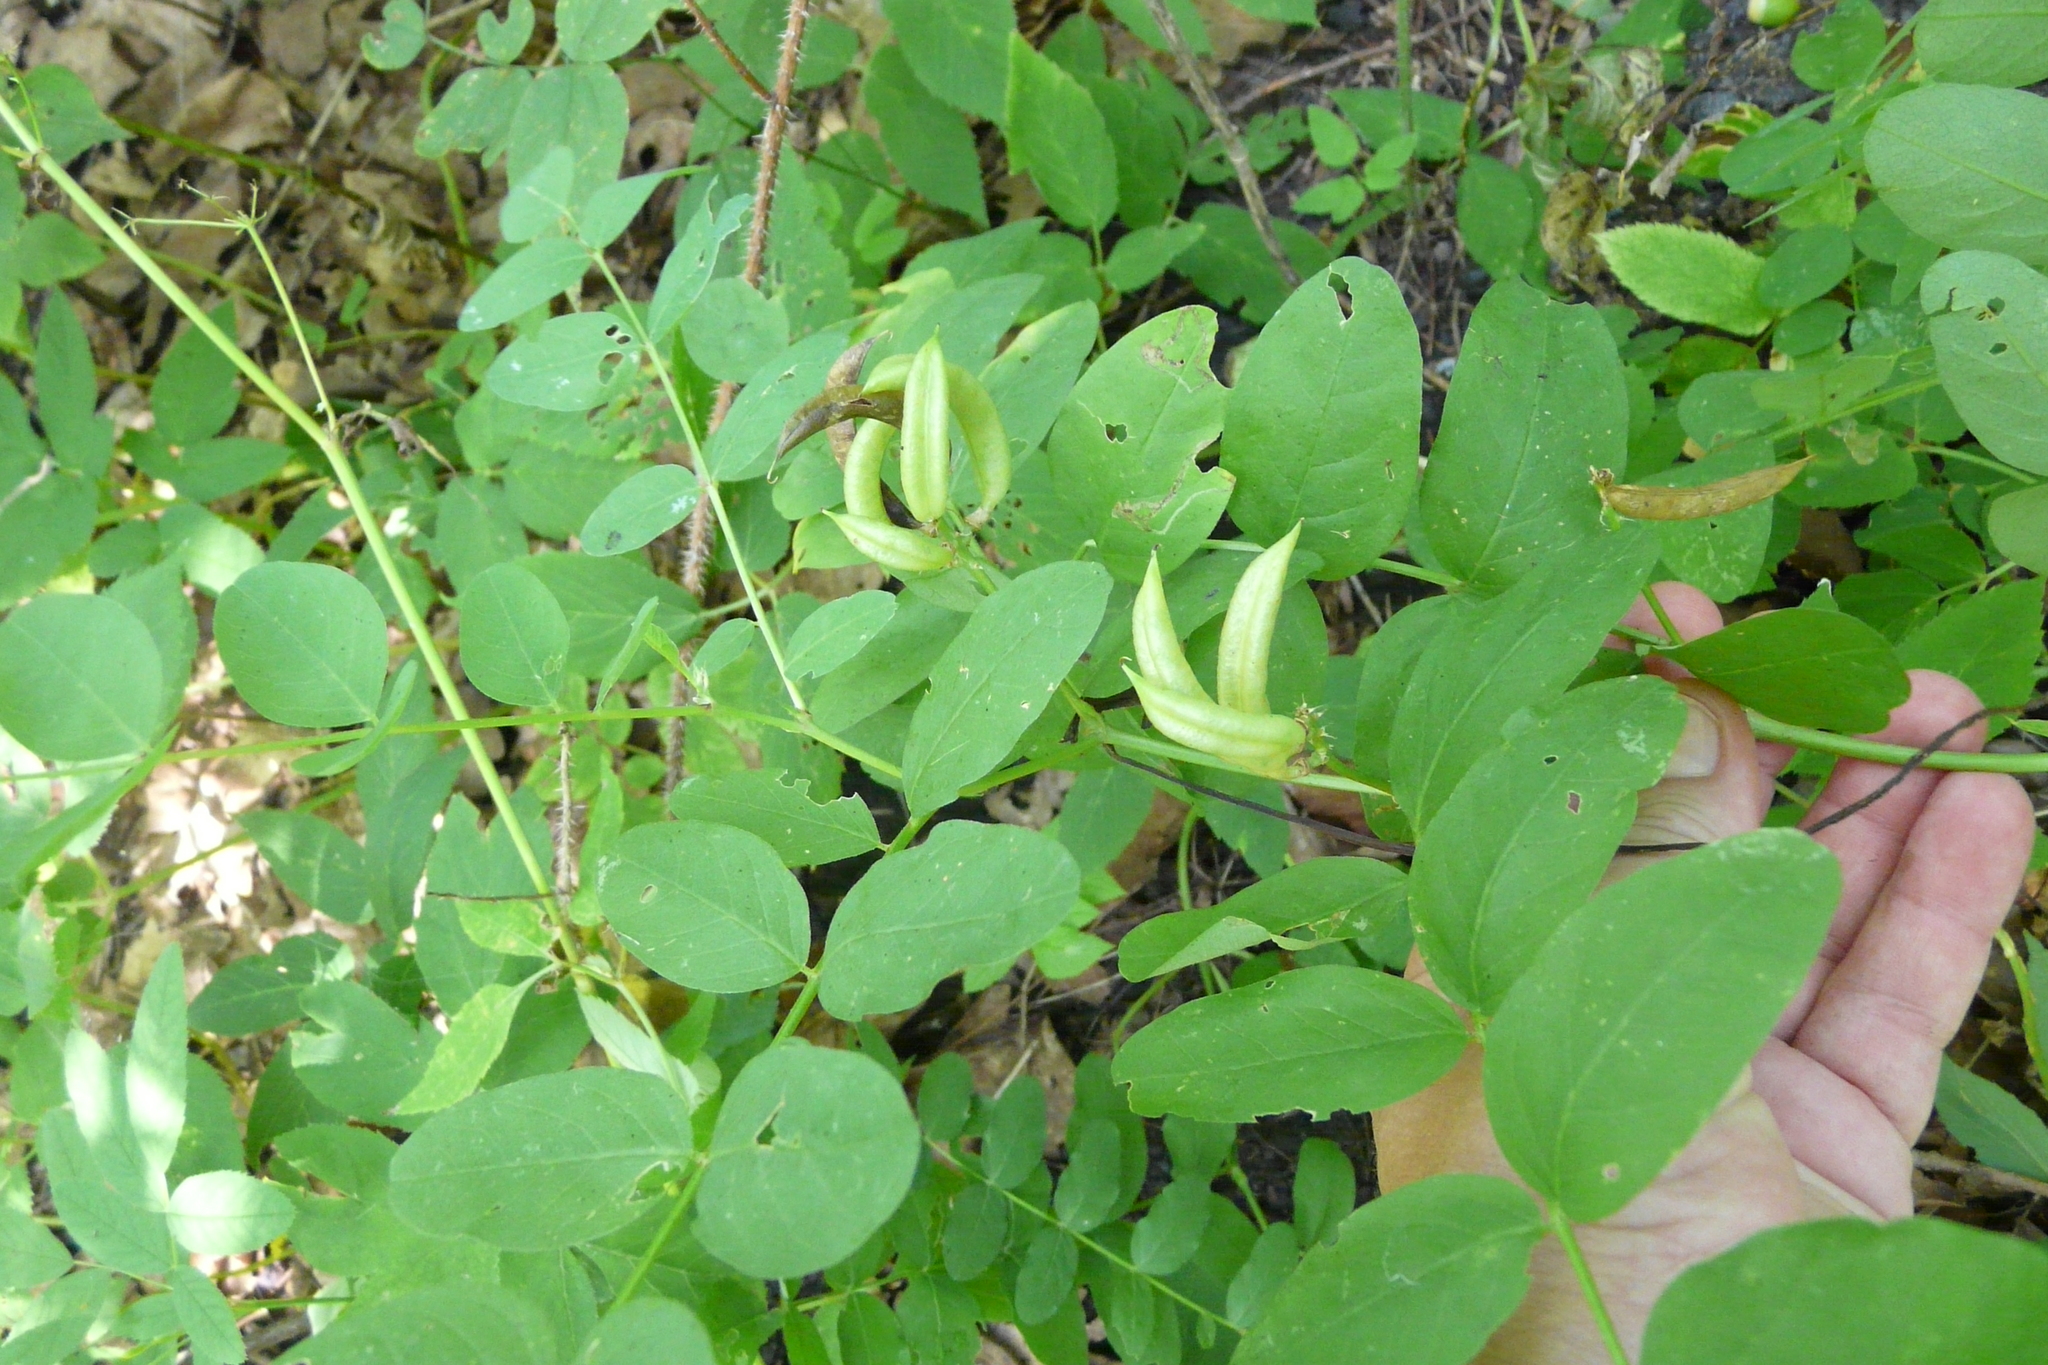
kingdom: Plantae
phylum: Tracheophyta
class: Magnoliopsida
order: Fabales
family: Fabaceae
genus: Astragalus
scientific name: Astragalus glycyphyllos
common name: Wild liquorice
